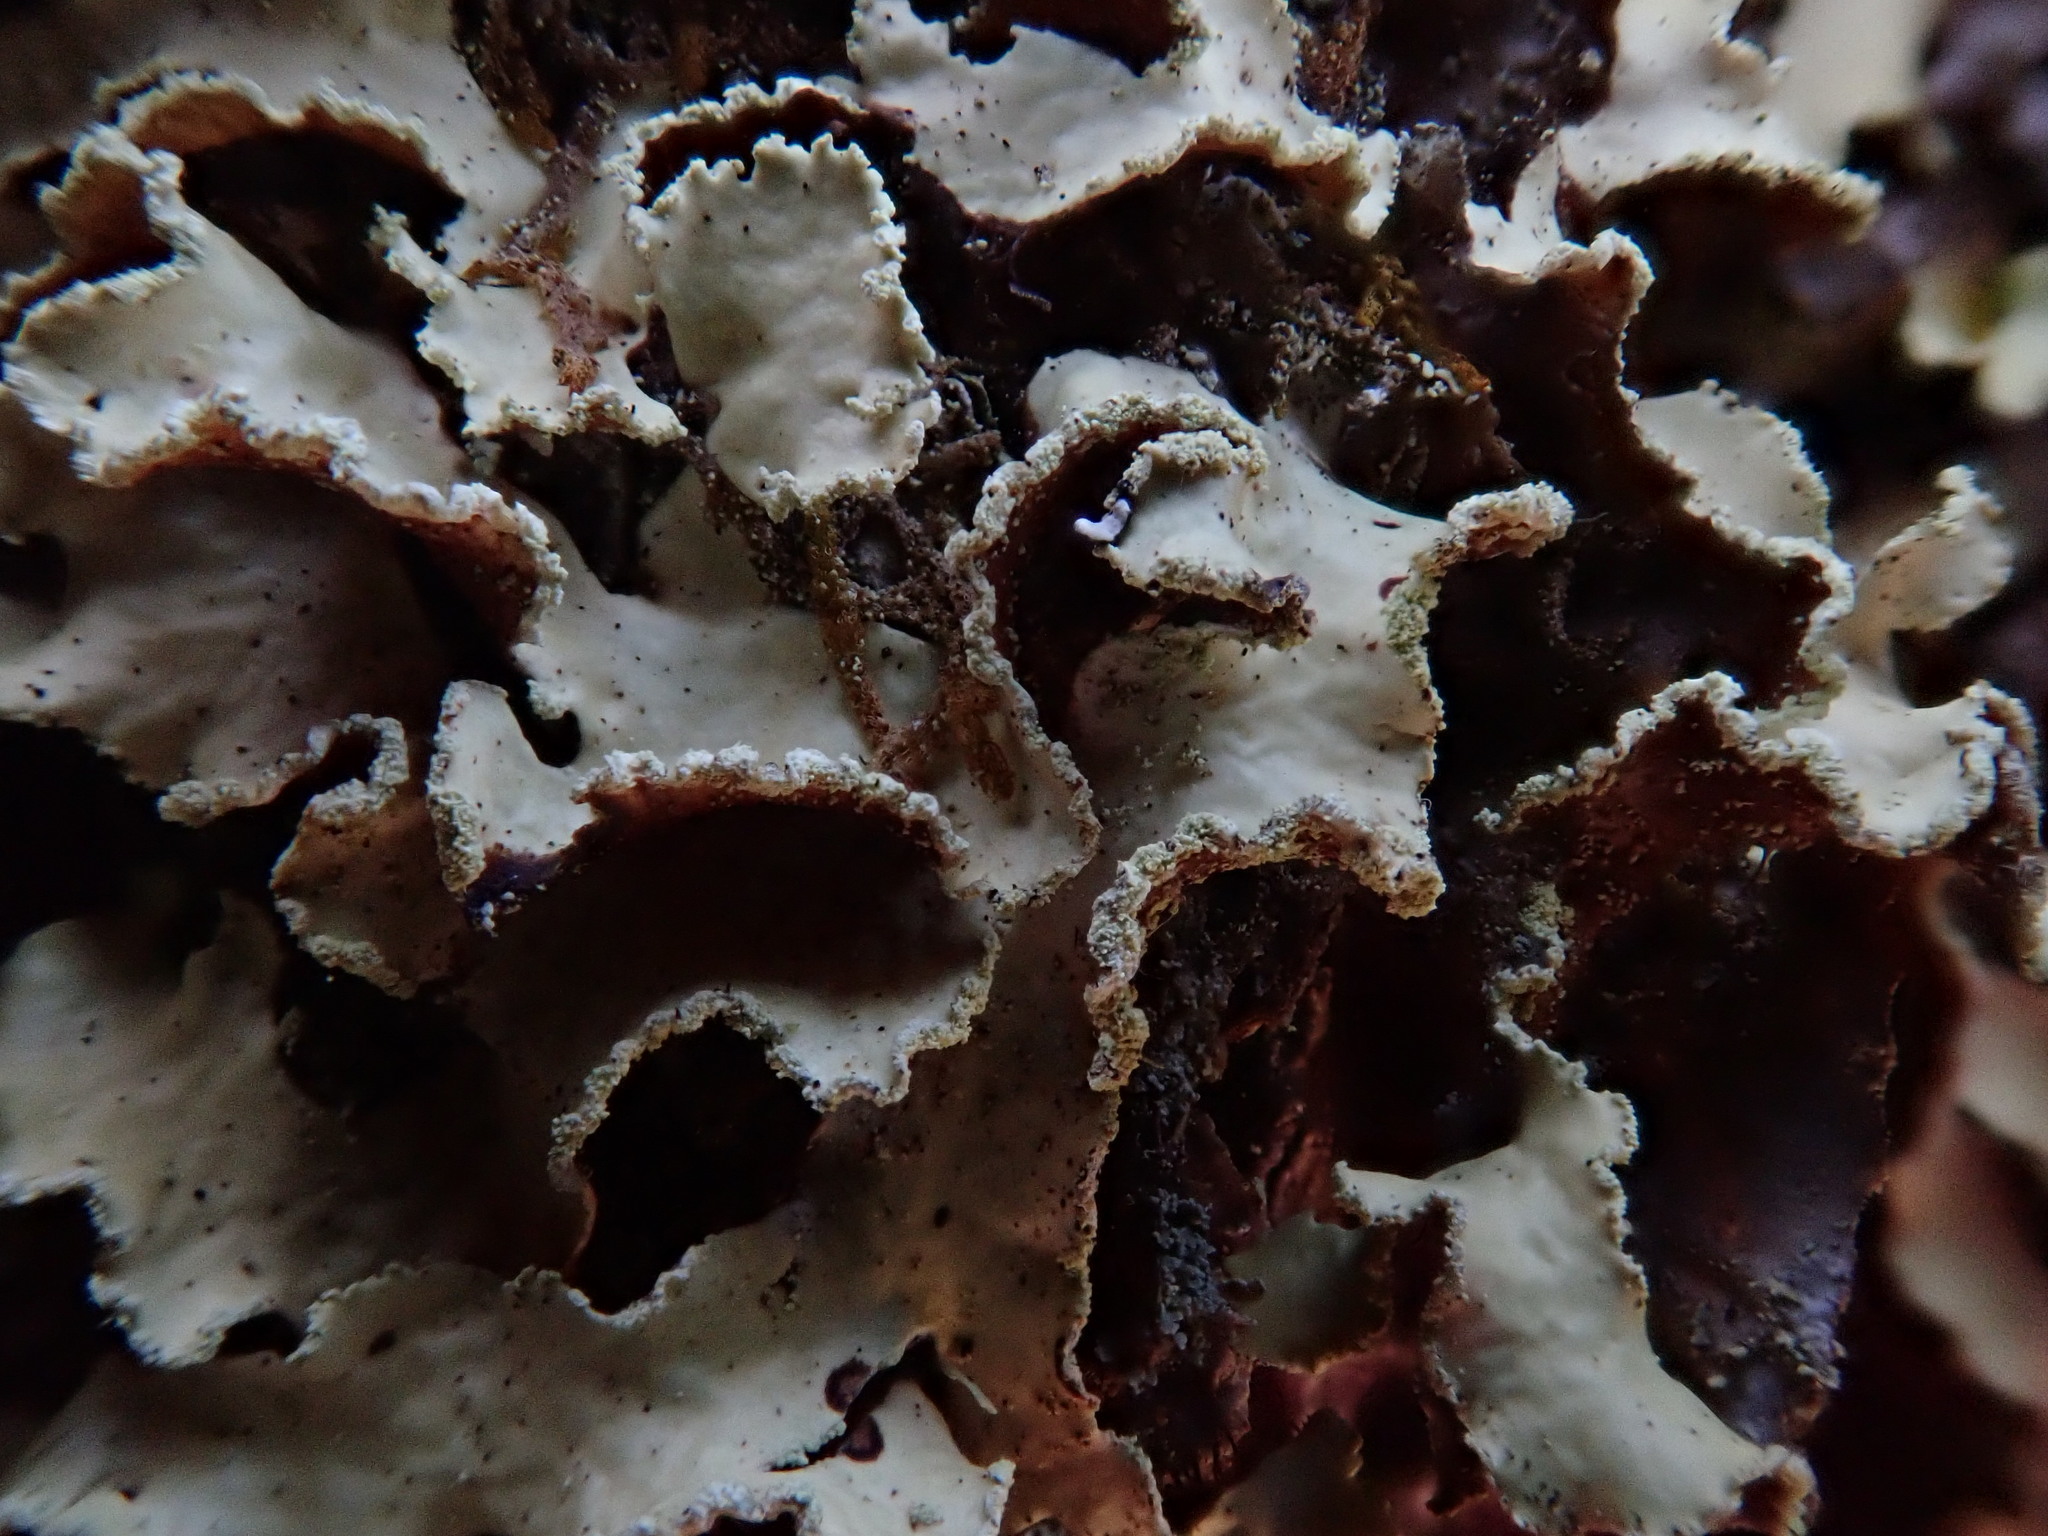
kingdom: Fungi
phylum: Ascomycota
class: Lecanoromycetes
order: Lecanorales
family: Parmeliaceae
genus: Usnocetraria
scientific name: Usnocetraria oakesiana
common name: Yellow ribbon lichen
